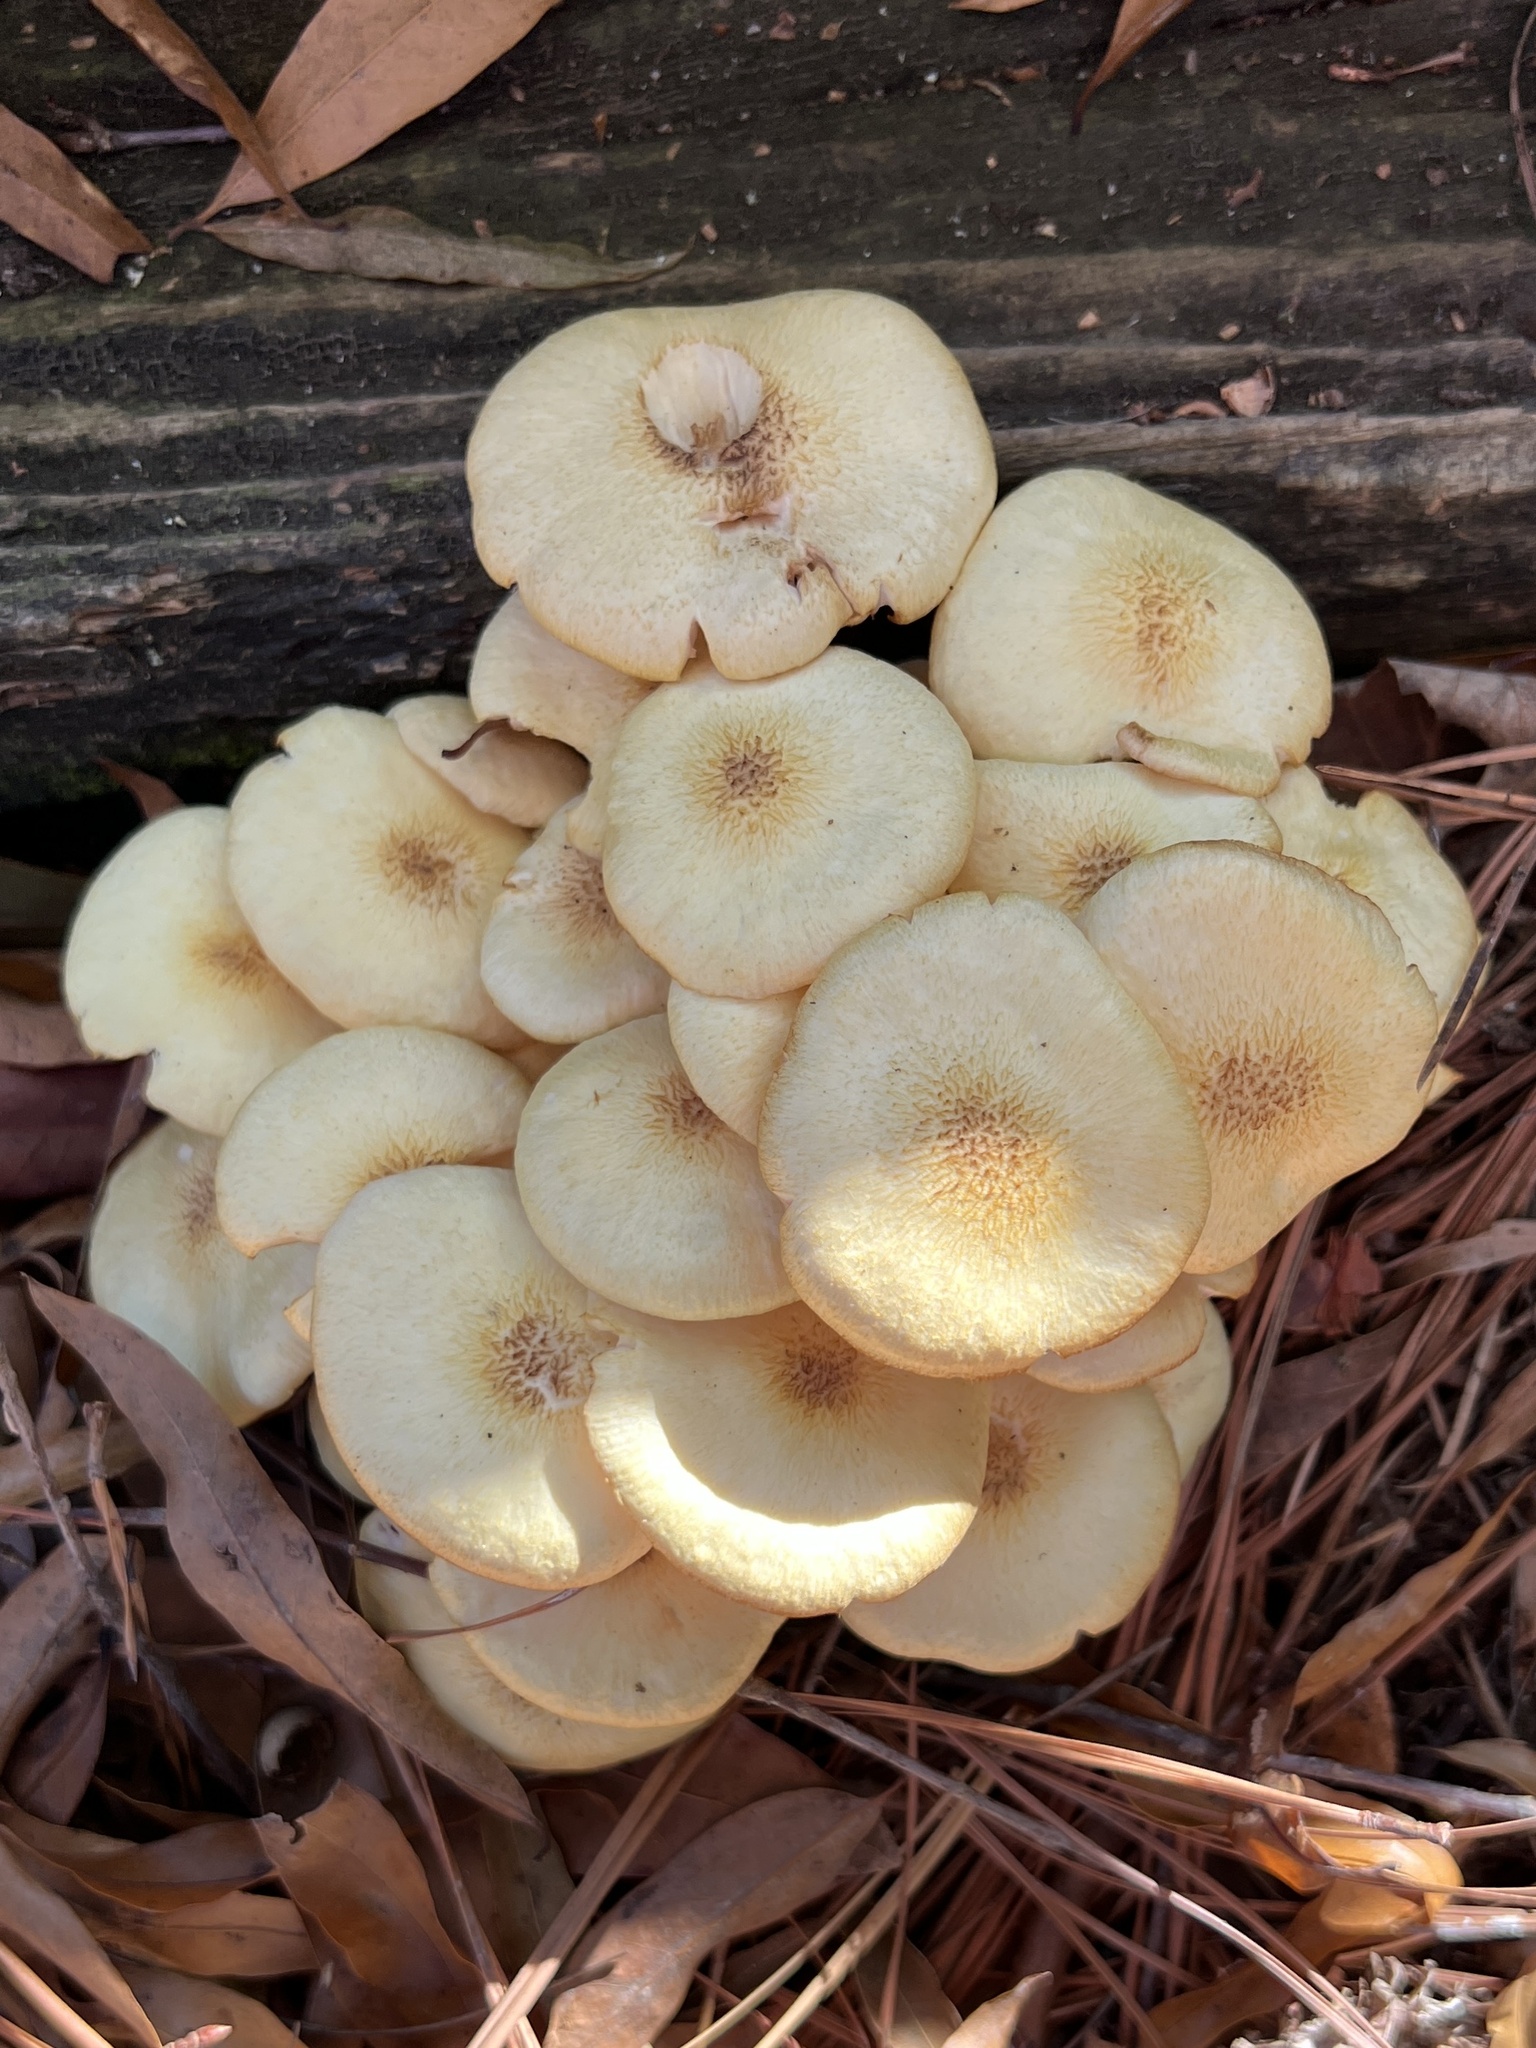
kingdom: Fungi
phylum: Basidiomycota
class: Agaricomycetes
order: Agaricales
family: Physalacriaceae
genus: Desarmillaria
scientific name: Desarmillaria caespitosa
